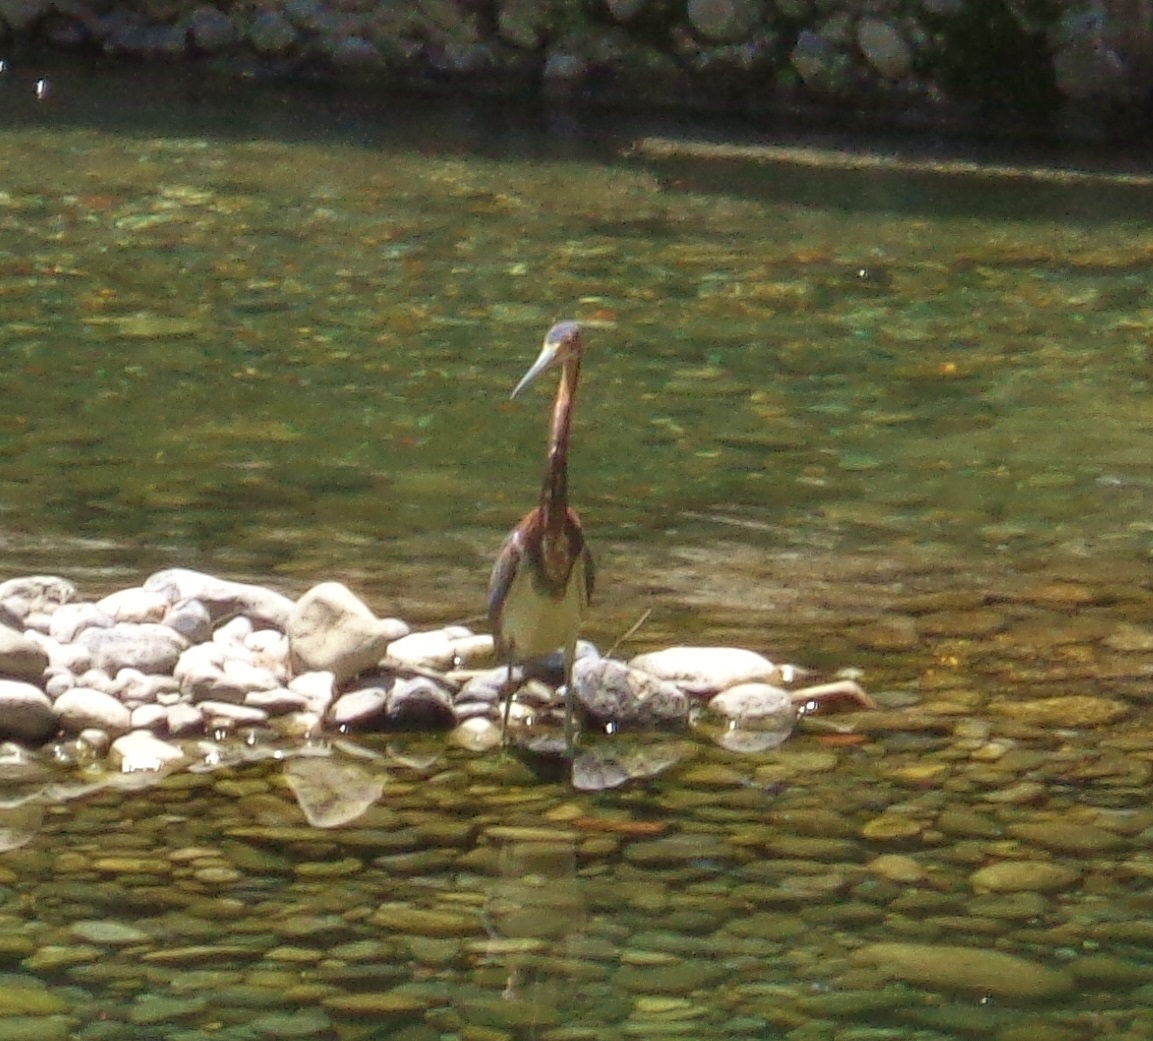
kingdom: Animalia
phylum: Chordata
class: Aves
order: Pelecaniformes
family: Ardeidae
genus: Egretta
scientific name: Egretta tricolor
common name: Tricolored heron
